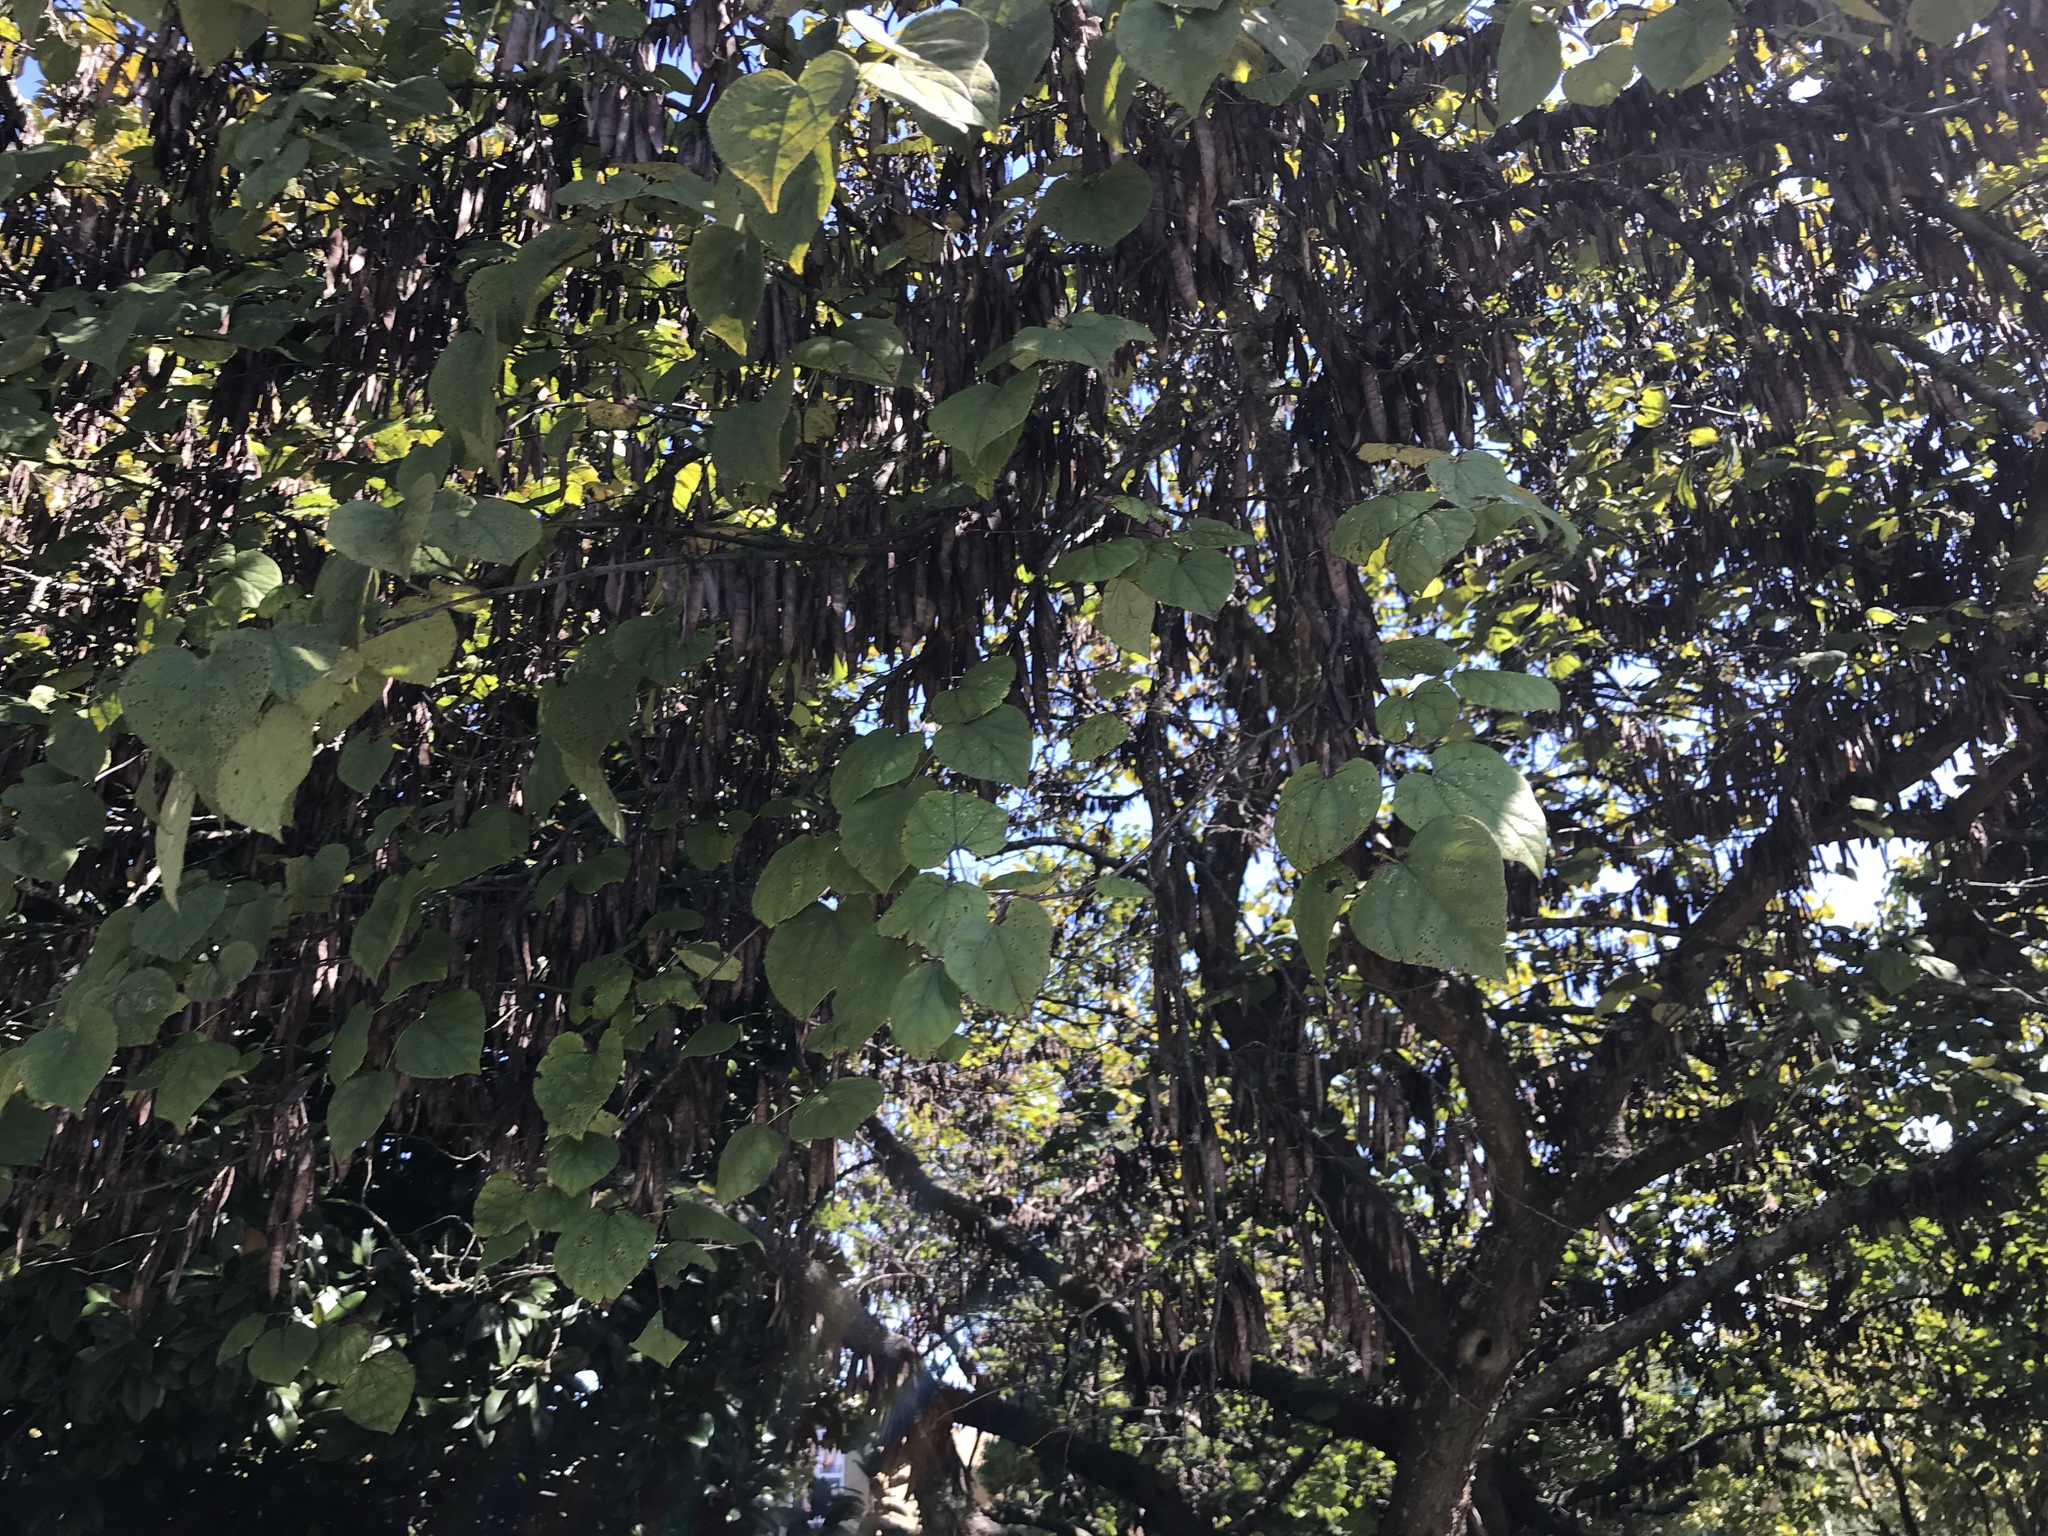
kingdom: Plantae
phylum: Tracheophyta
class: Magnoliopsida
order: Fabales
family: Fabaceae
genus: Cercis
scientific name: Cercis canadensis
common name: Eastern redbud
